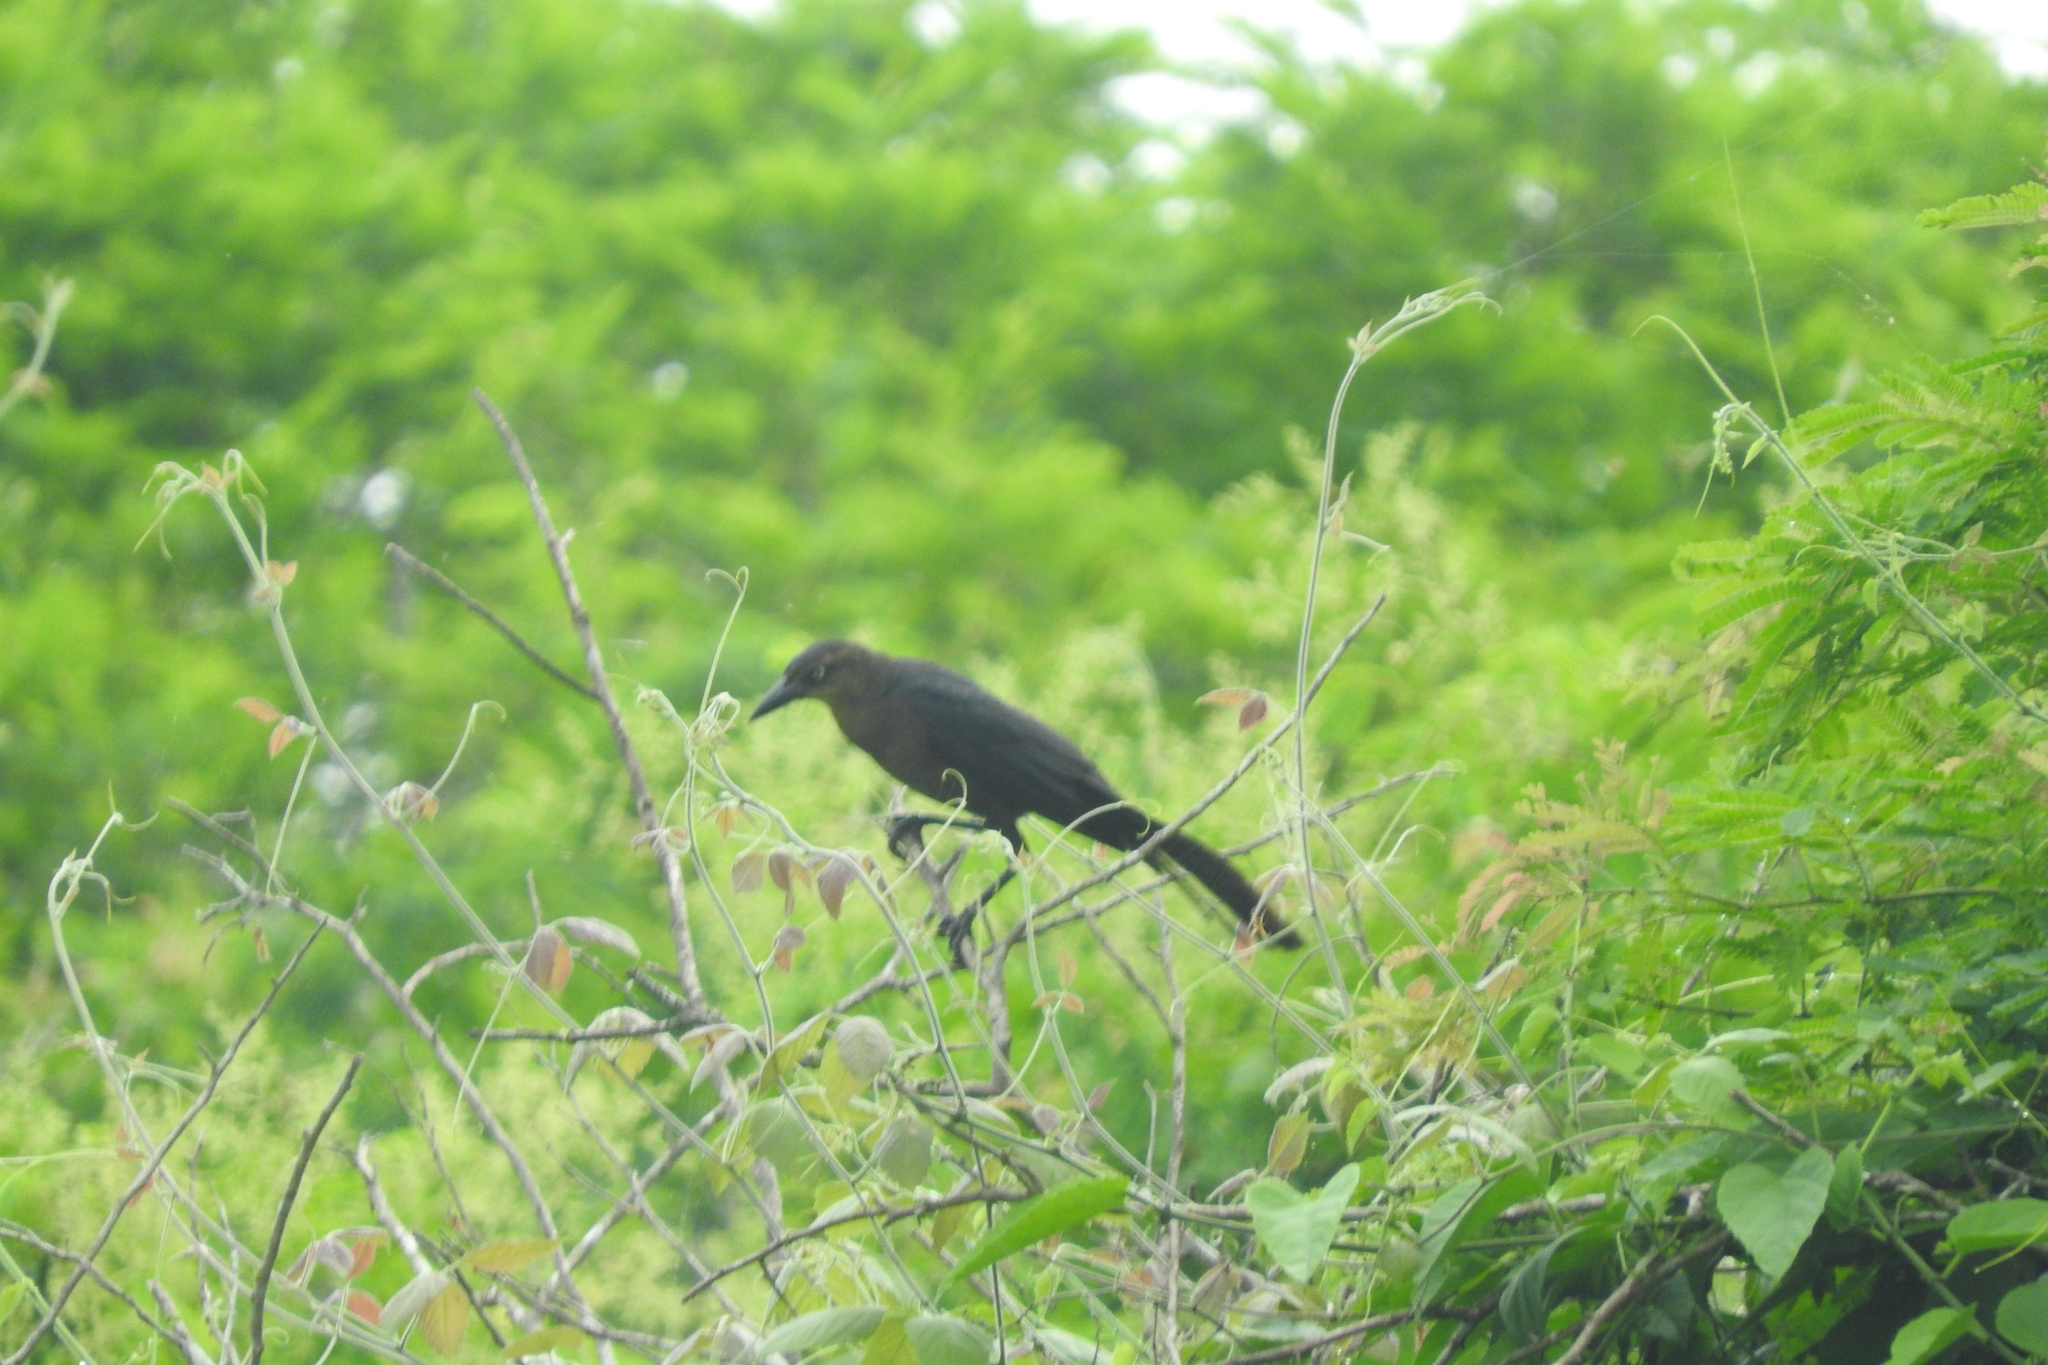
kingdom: Animalia
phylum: Chordata
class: Aves
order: Passeriformes
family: Icteridae
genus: Quiscalus
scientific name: Quiscalus mexicanus
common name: Great-tailed grackle
